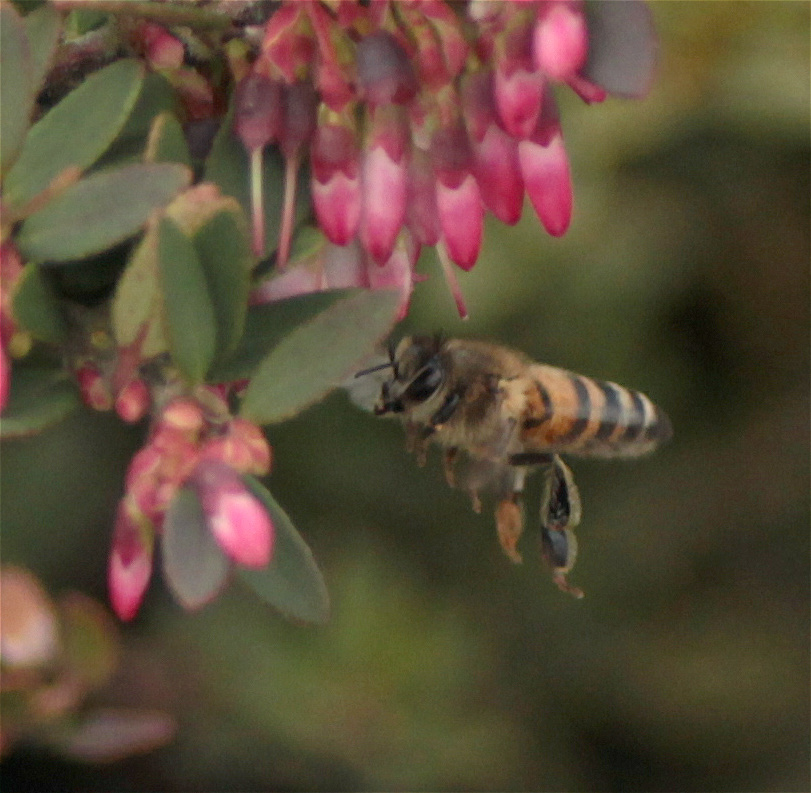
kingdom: Animalia
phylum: Arthropoda
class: Insecta
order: Hymenoptera
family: Apidae
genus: Apis
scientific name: Apis mellifera
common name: Honey bee
